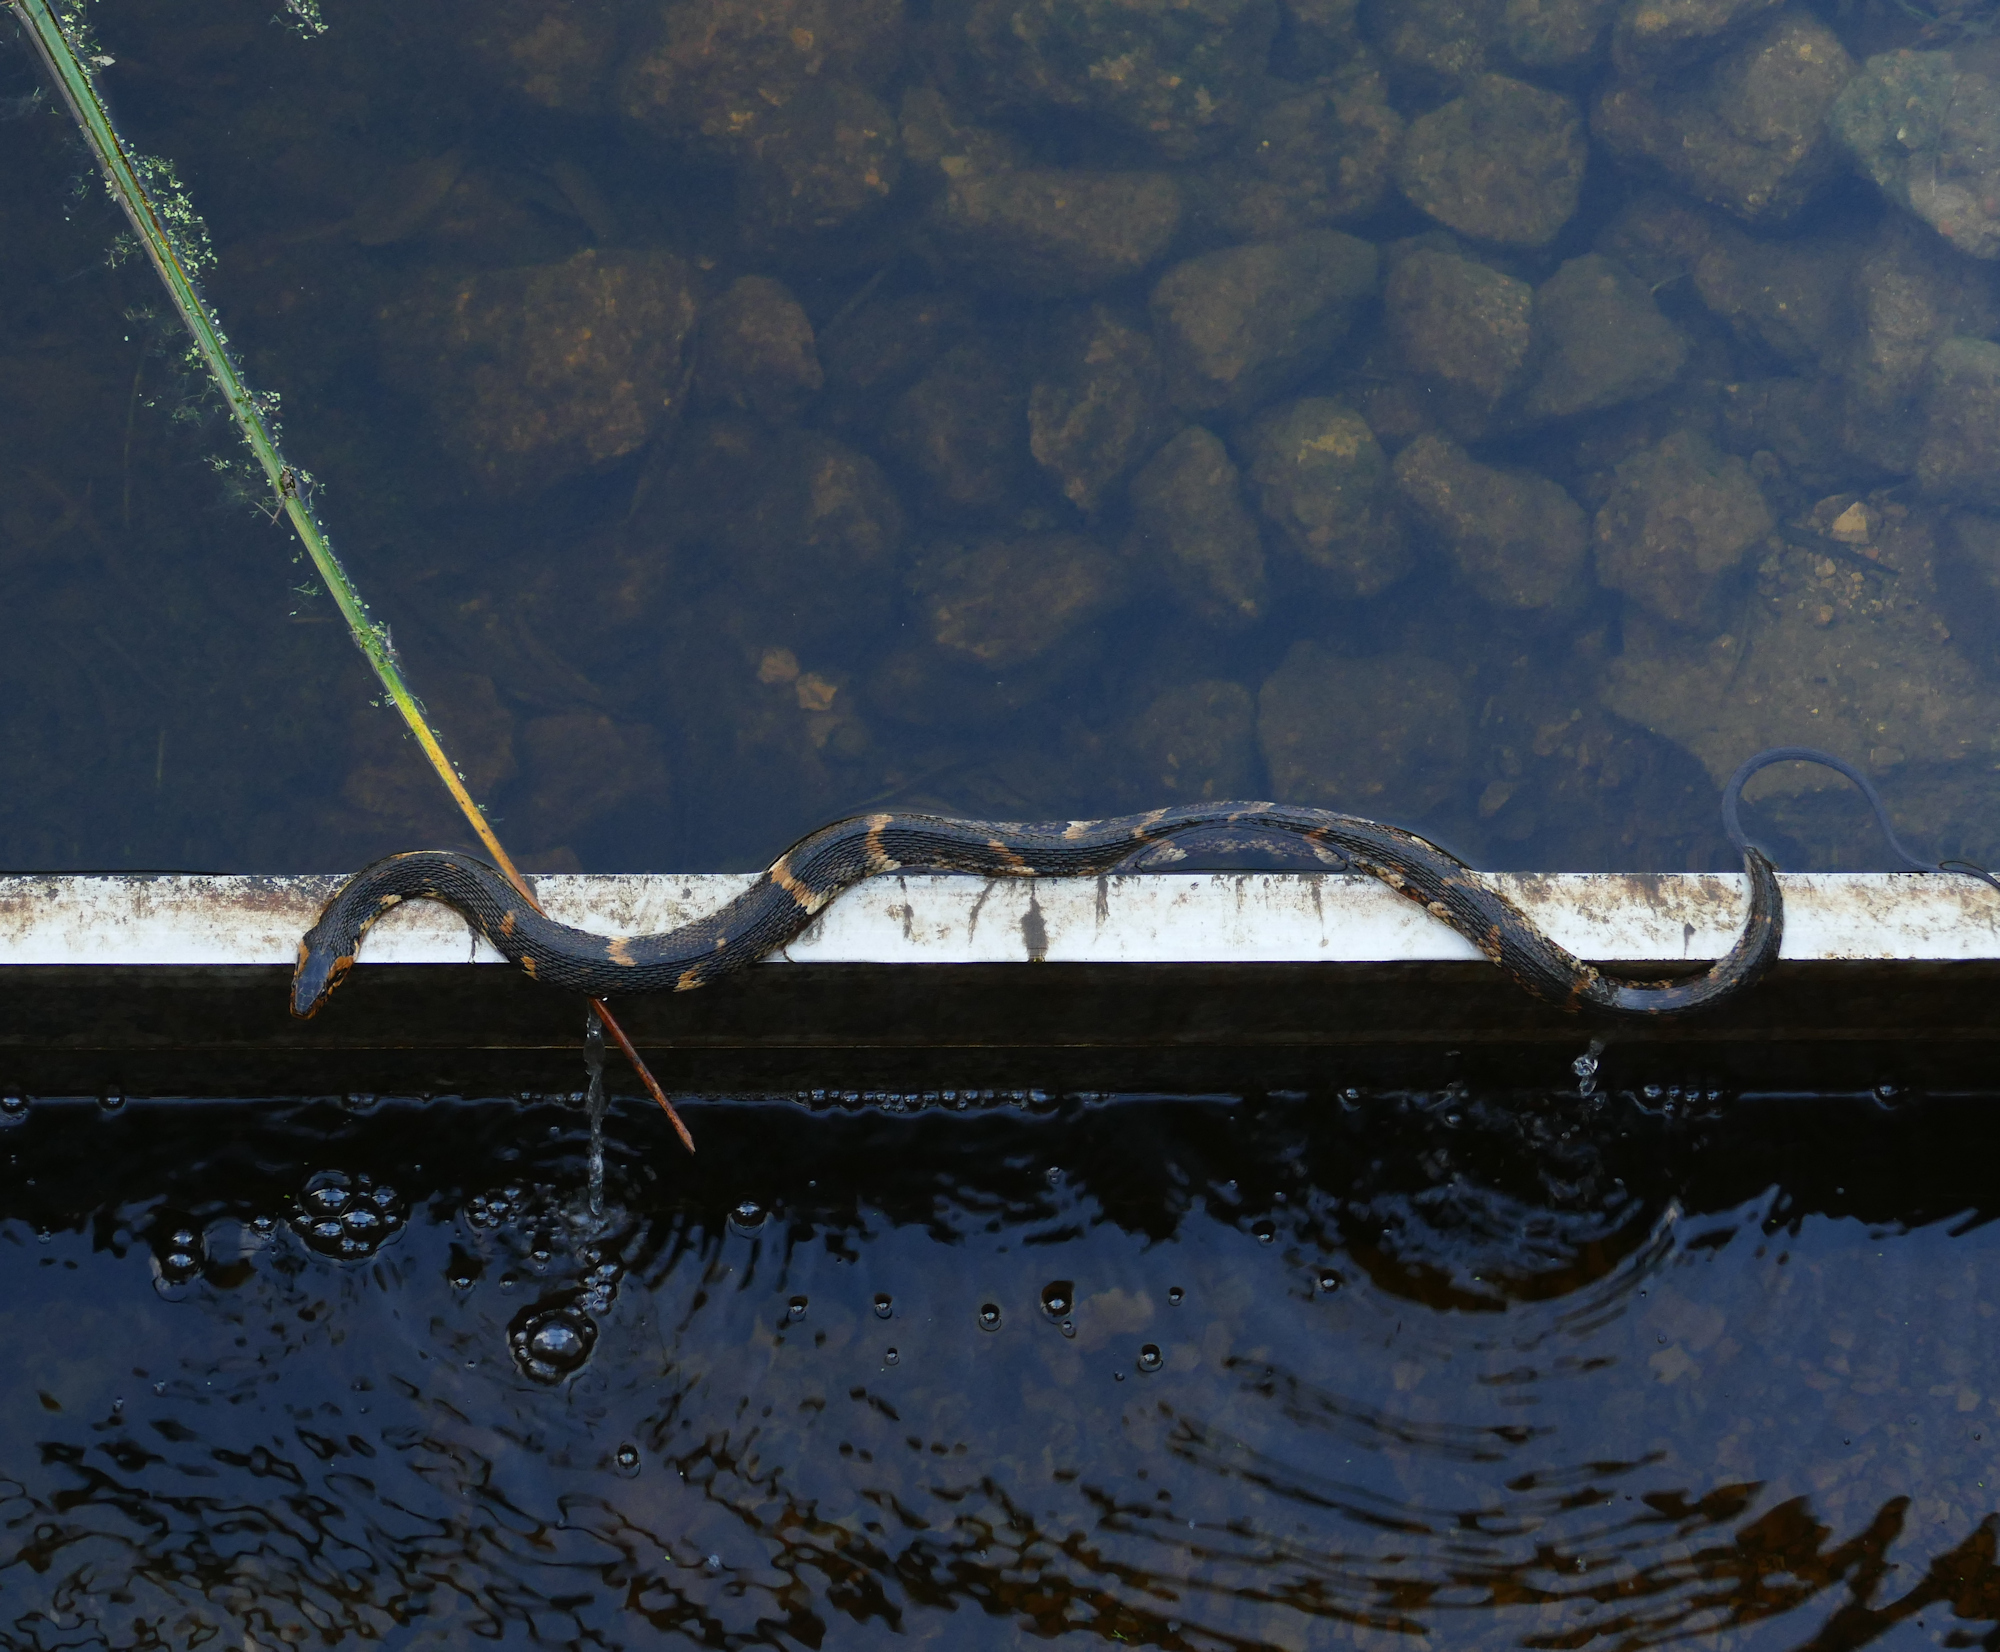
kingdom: Animalia
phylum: Chordata
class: Squamata
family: Colubridae
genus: Nerodia
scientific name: Nerodia fasciata
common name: Southern water snake
